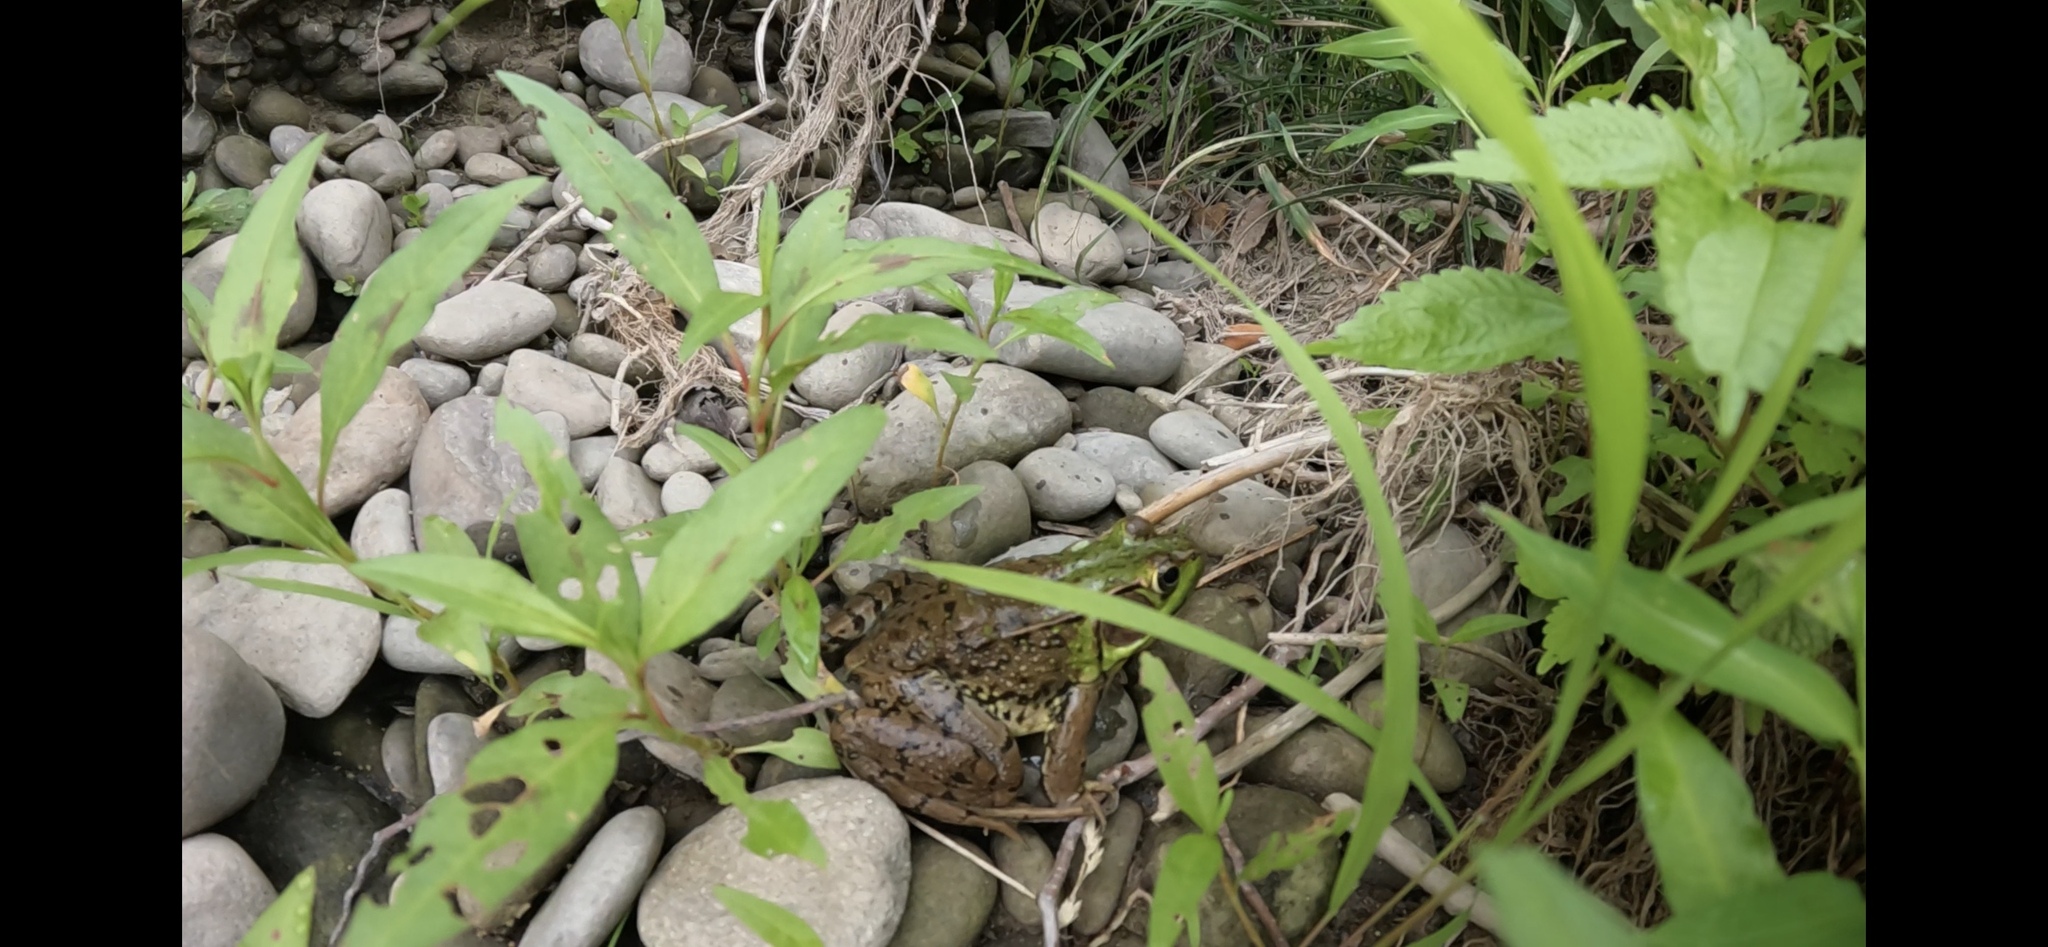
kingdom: Animalia
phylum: Chordata
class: Amphibia
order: Anura
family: Ranidae
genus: Lithobates
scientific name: Lithobates clamitans
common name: Green frog
